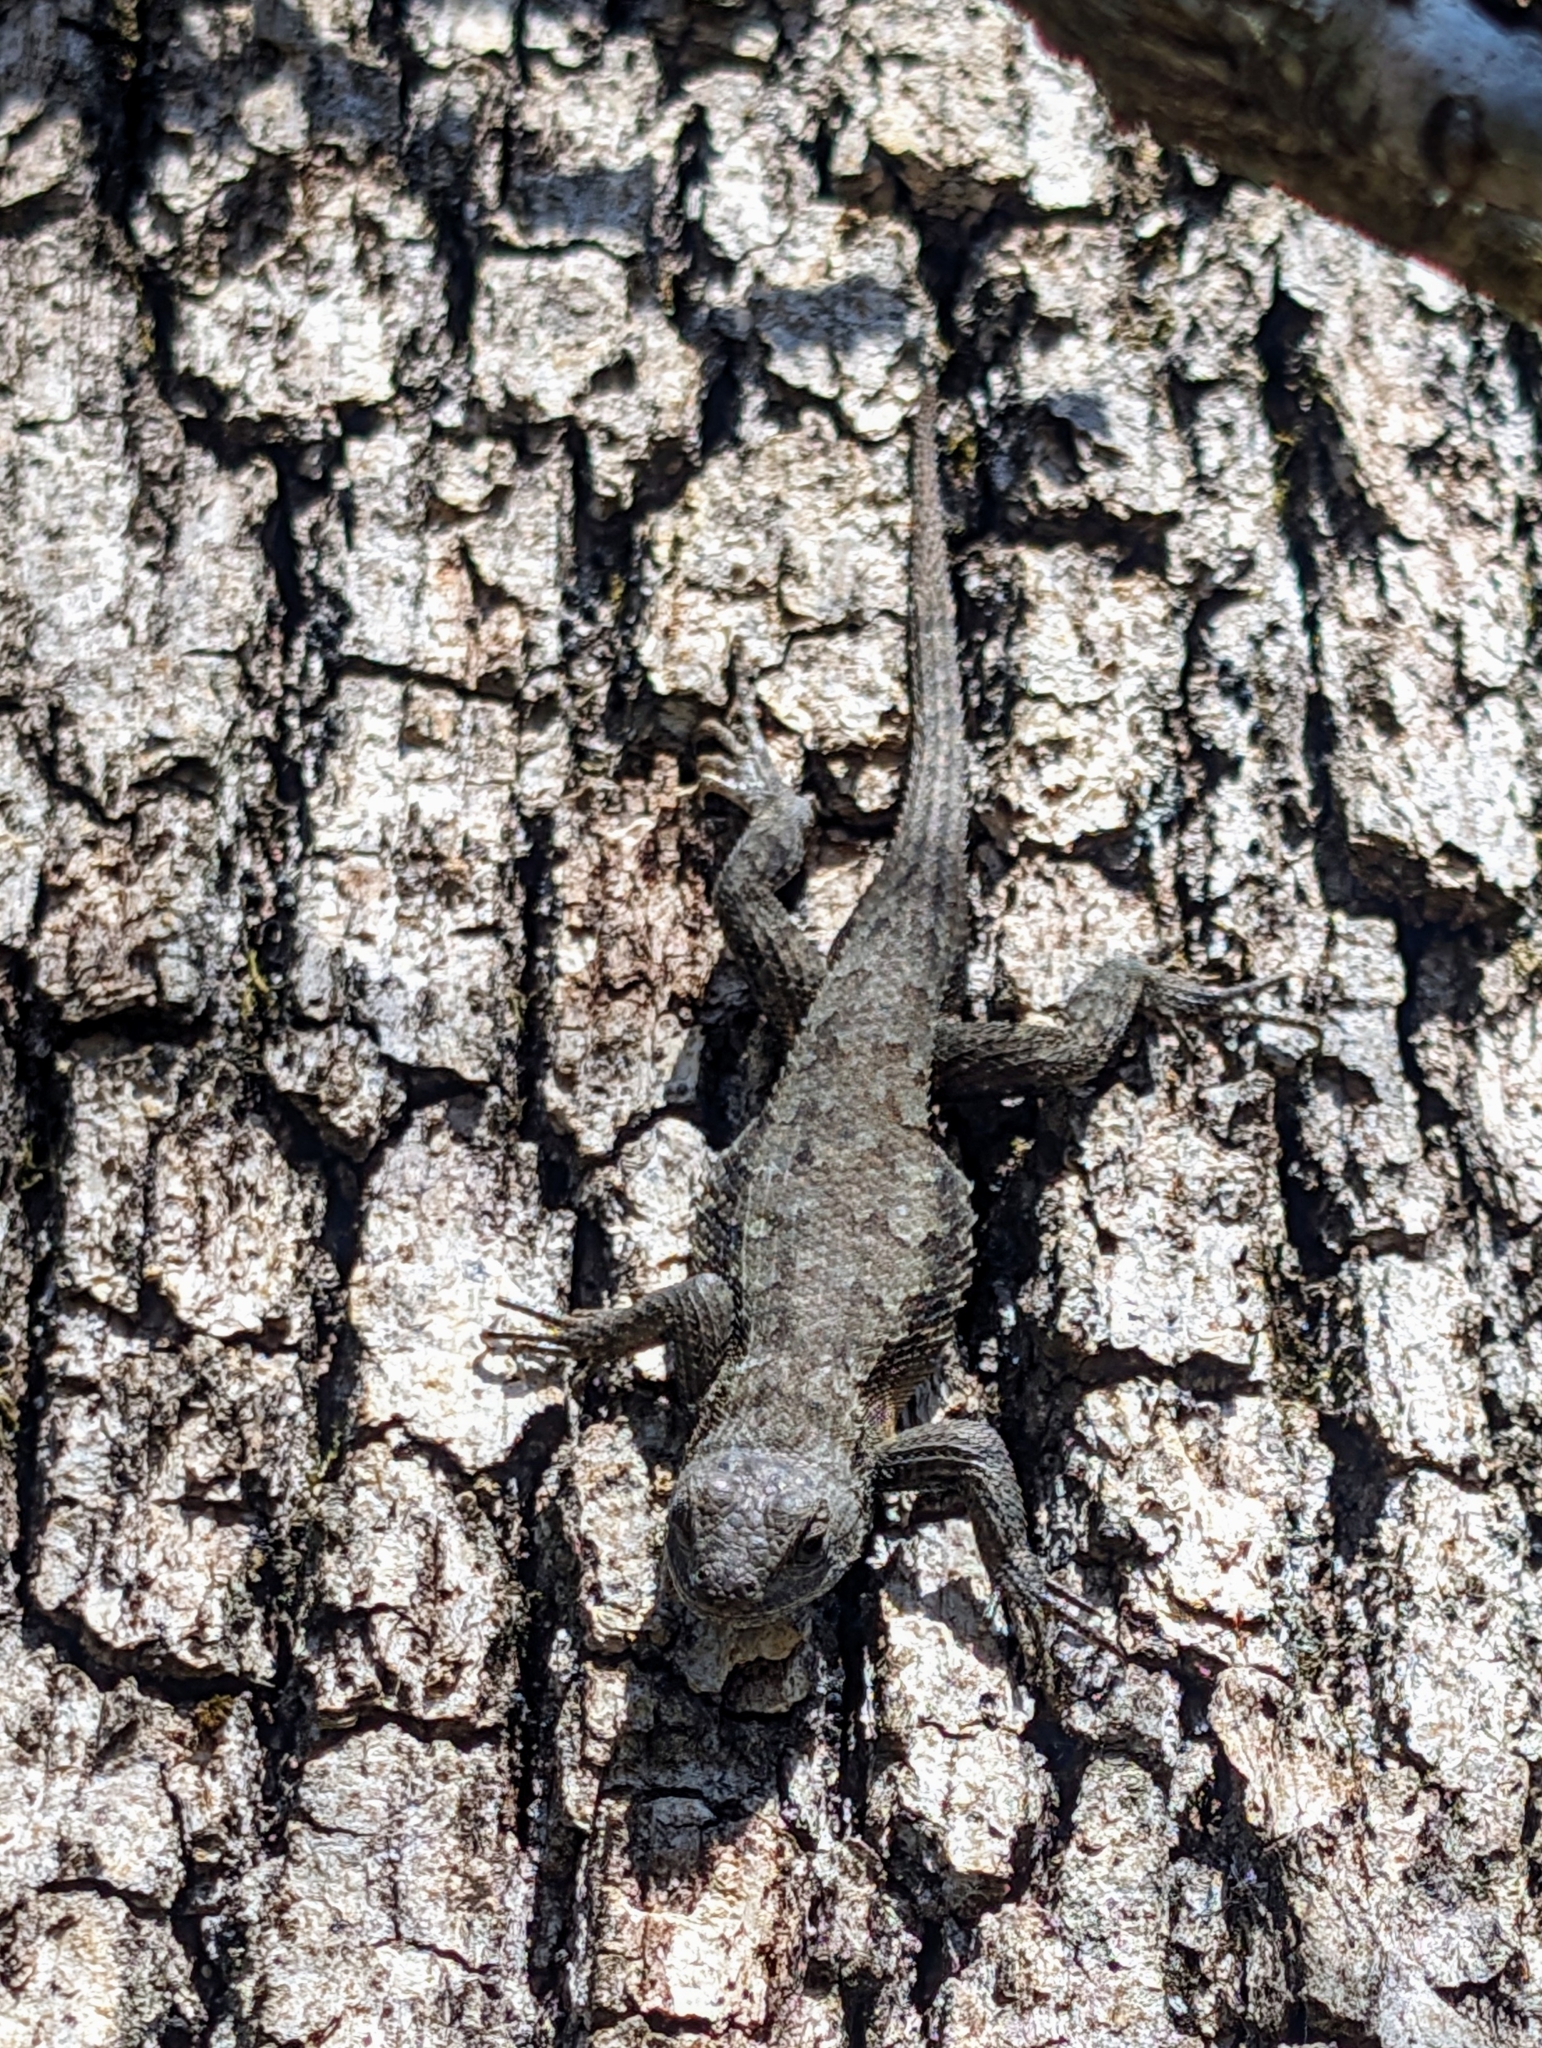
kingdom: Animalia
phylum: Chordata
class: Squamata
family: Phrynosomatidae
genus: Sceloporus
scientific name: Sceloporus consobrinus
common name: Southern prairie lizard
